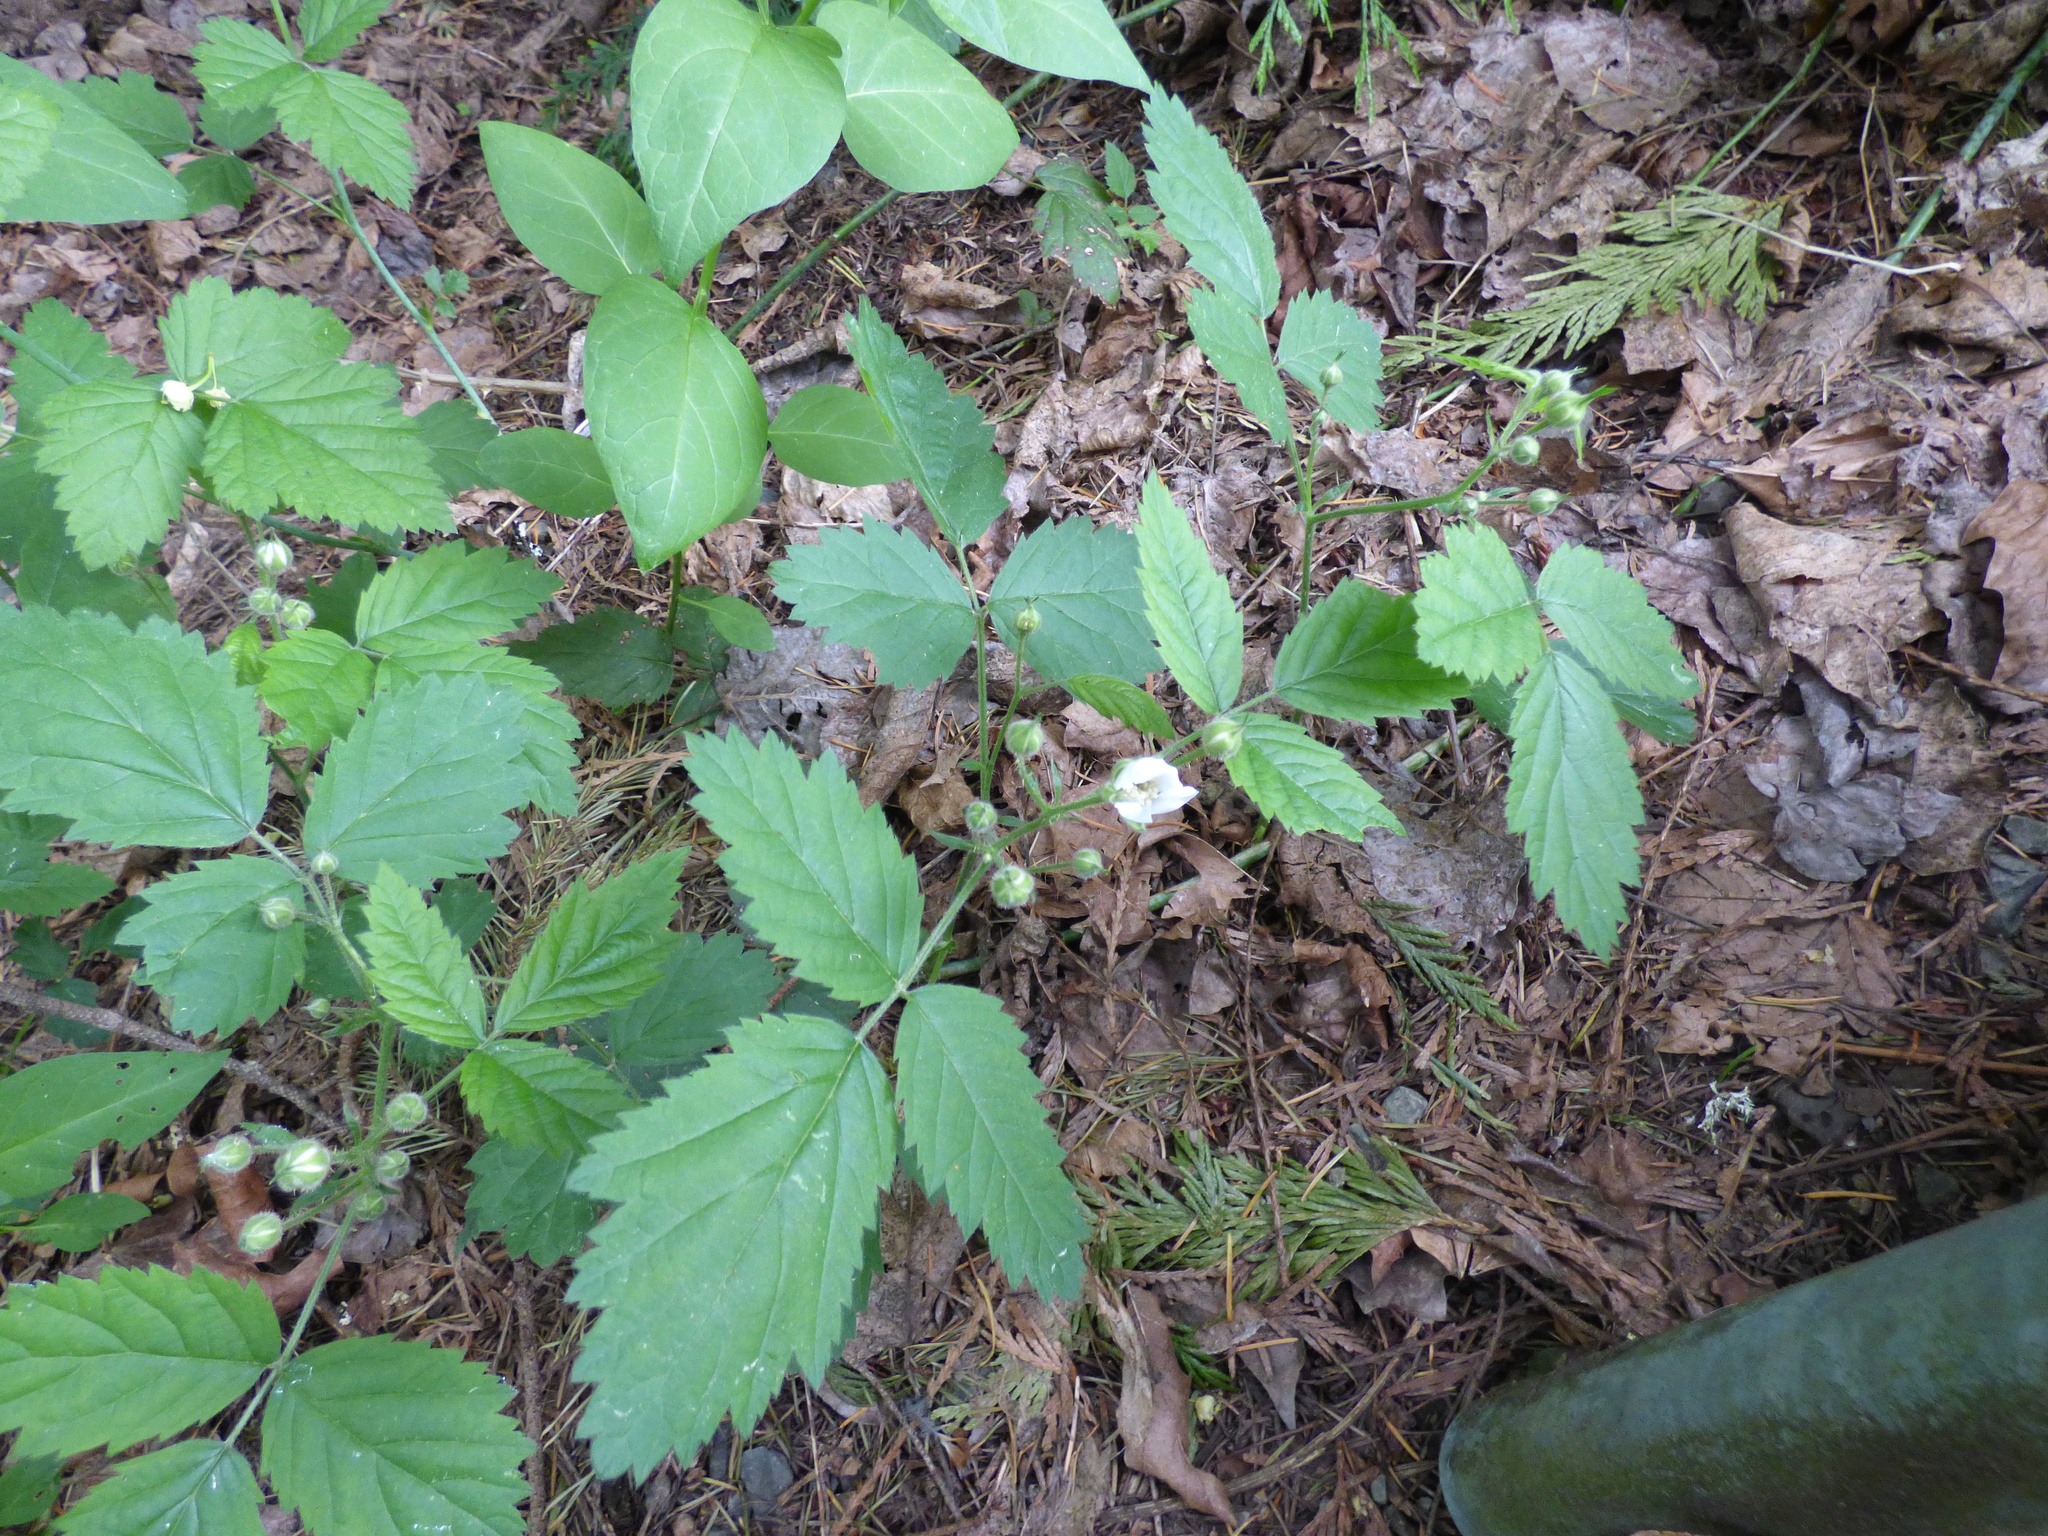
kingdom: Plantae
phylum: Tracheophyta
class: Magnoliopsida
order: Rosales
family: Rosaceae
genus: Rubus
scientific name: Rubus ursinus
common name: Pacific blackberry
